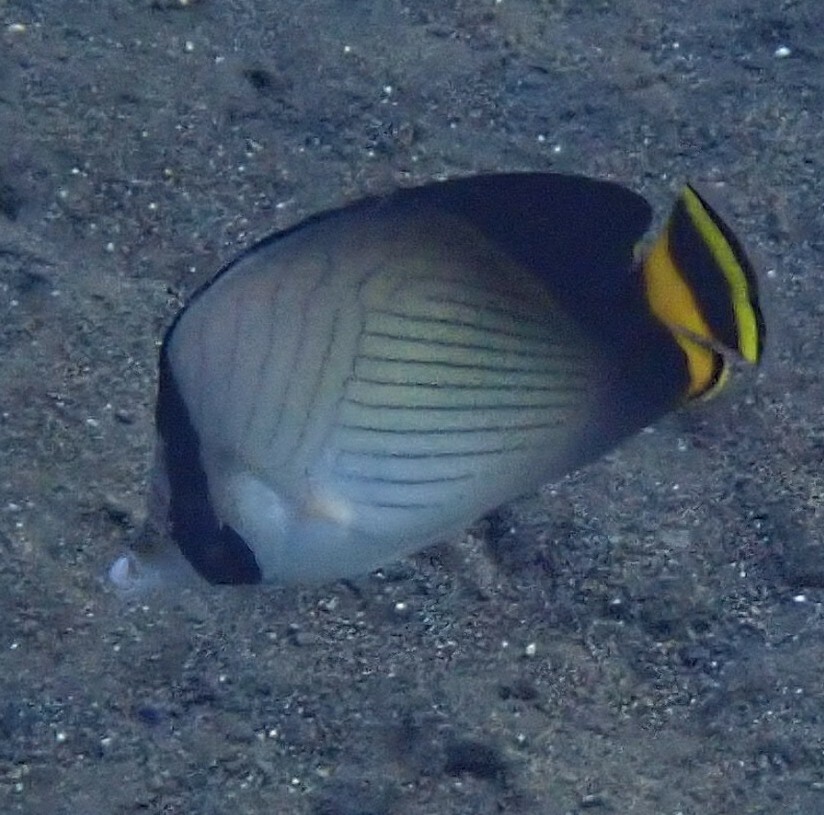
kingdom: Animalia
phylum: Chordata
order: Perciformes
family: Chaetodontidae
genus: Chaetodon
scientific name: Chaetodon decussatus
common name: Indian vagabond butterflyfish
